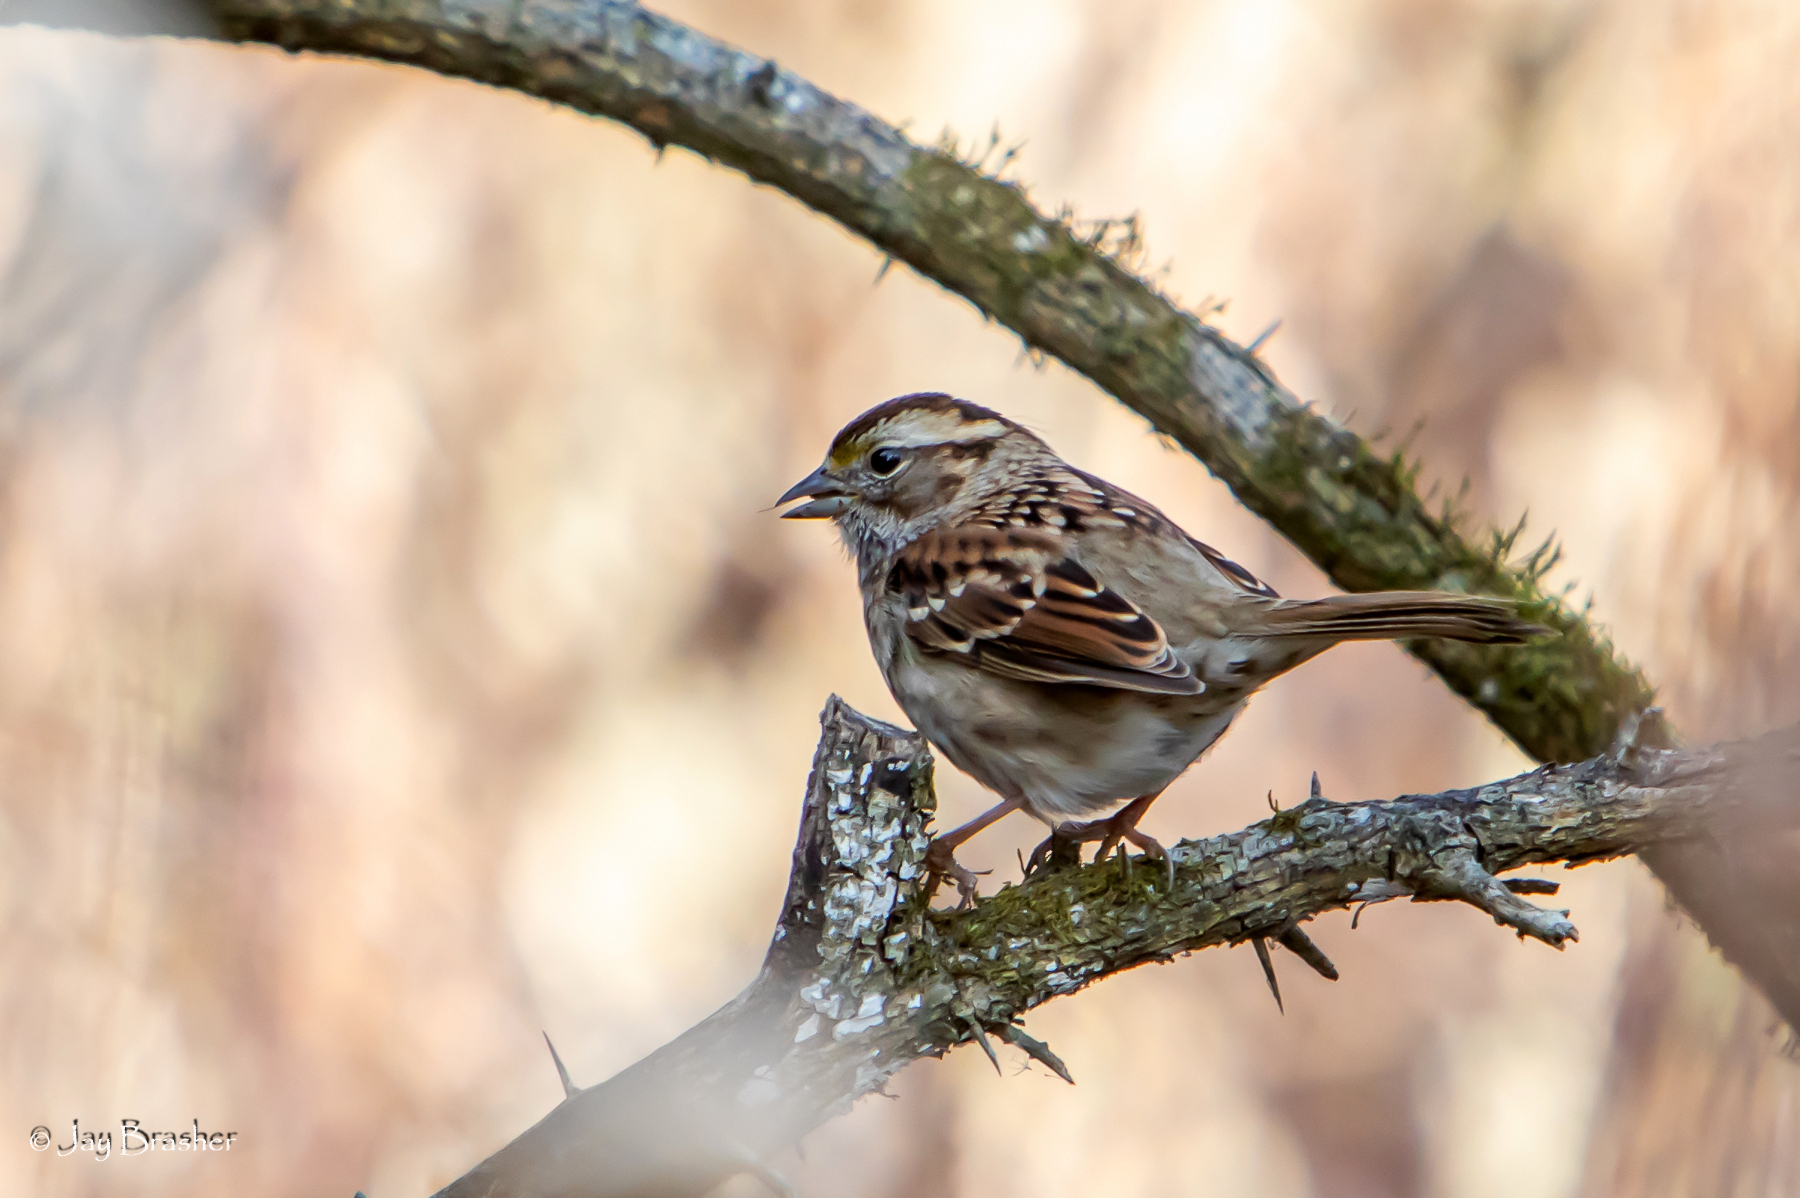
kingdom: Animalia
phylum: Chordata
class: Aves
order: Passeriformes
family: Passerellidae
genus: Zonotrichia
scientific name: Zonotrichia albicollis
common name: White-throated sparrow
